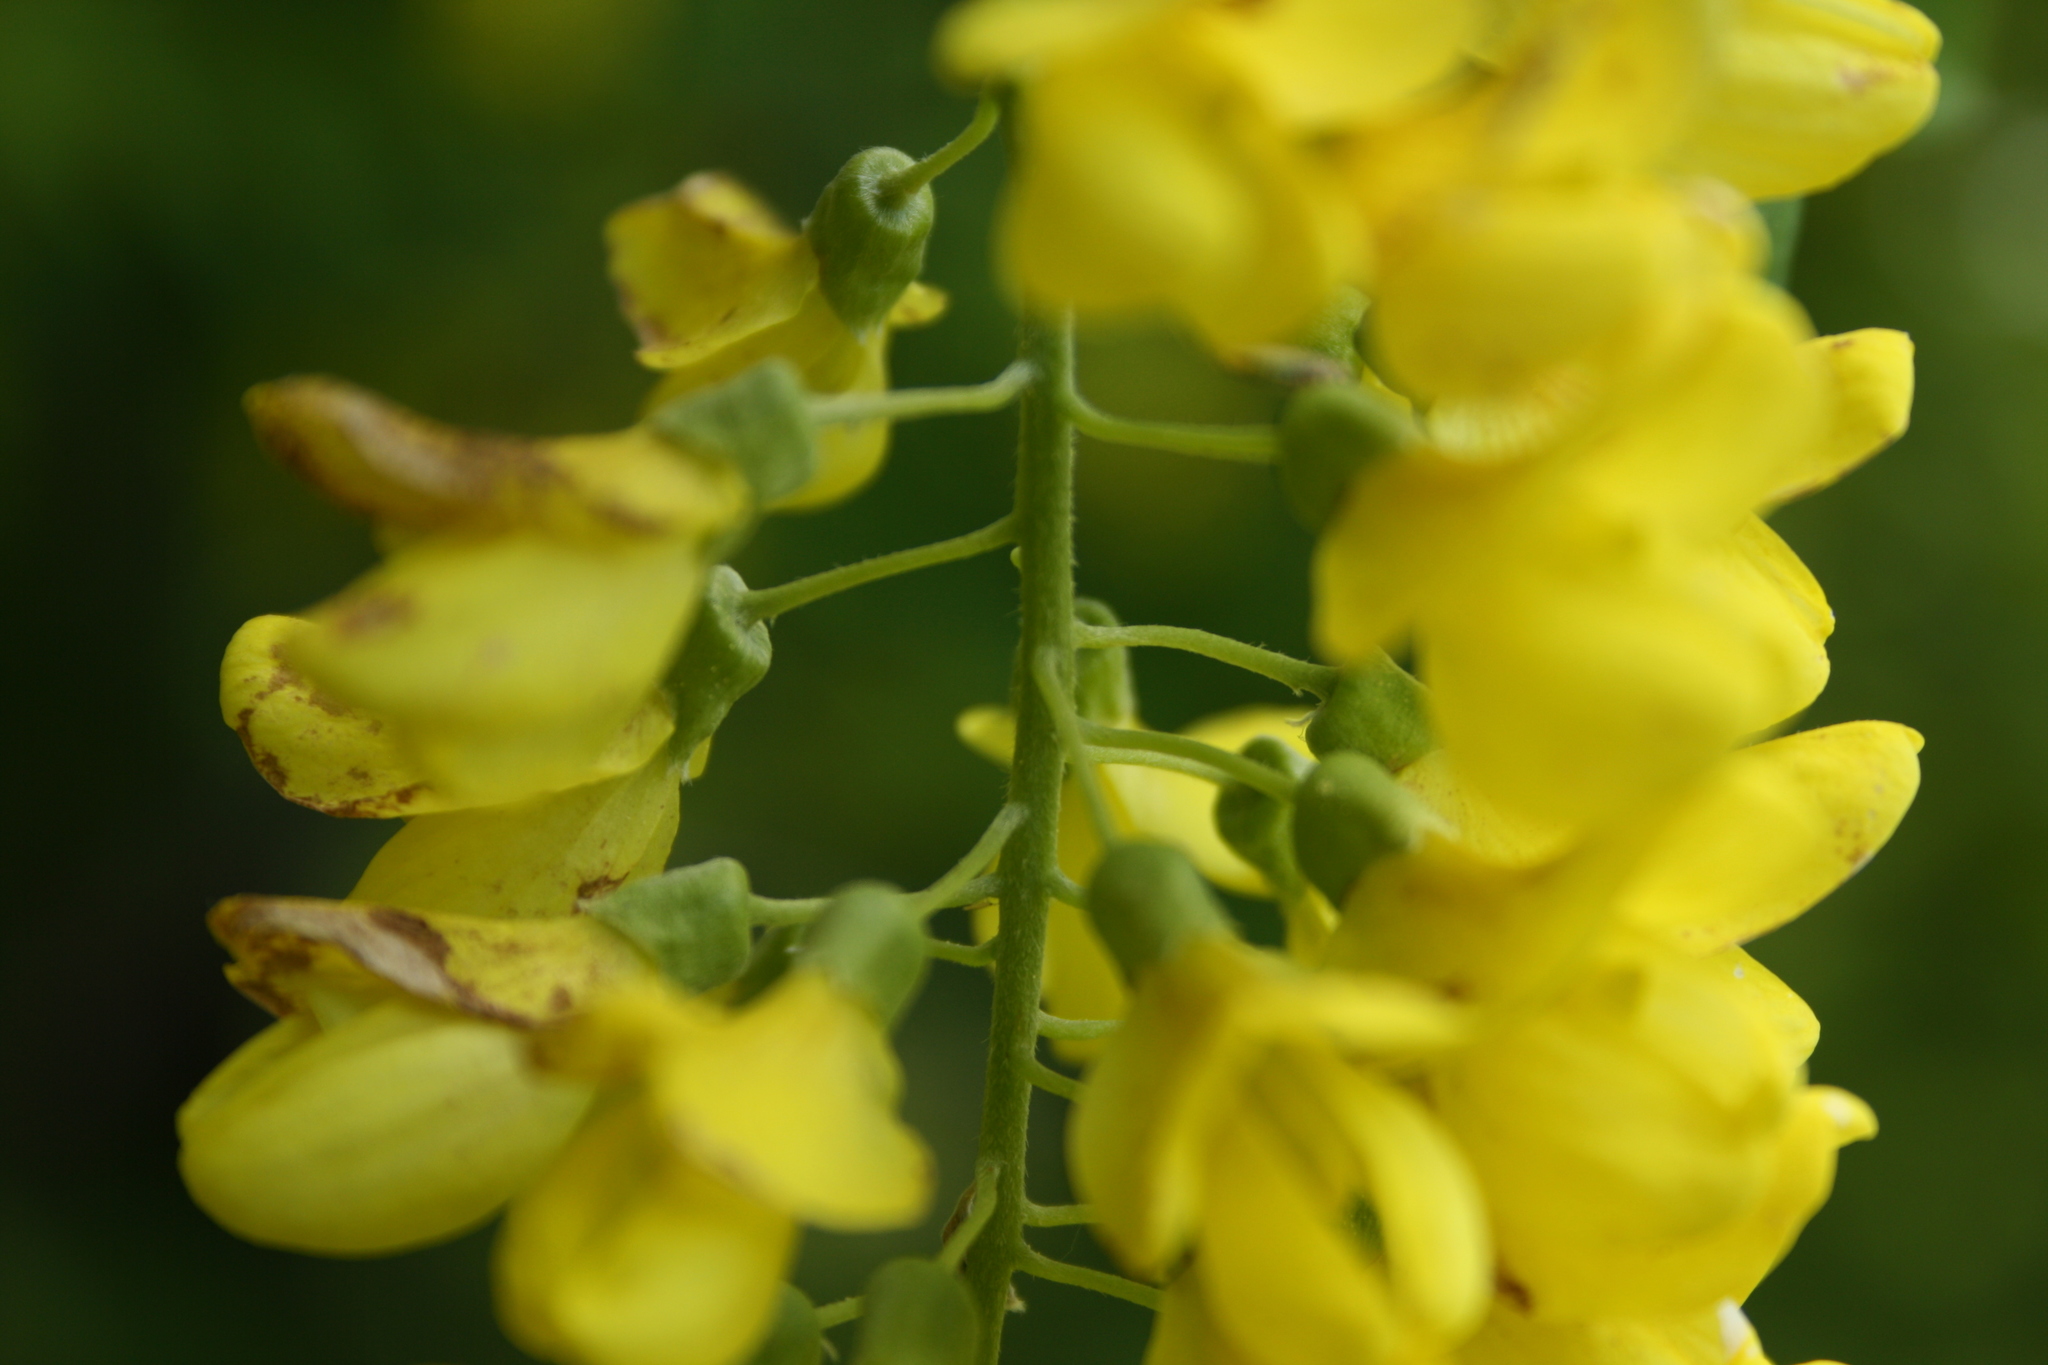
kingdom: Plantae
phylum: Tracheophyta
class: Magnoliopsida
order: Fabales
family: Fabaceae
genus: Laburnum
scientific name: Laburnum anagyroides
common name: Laburnum
